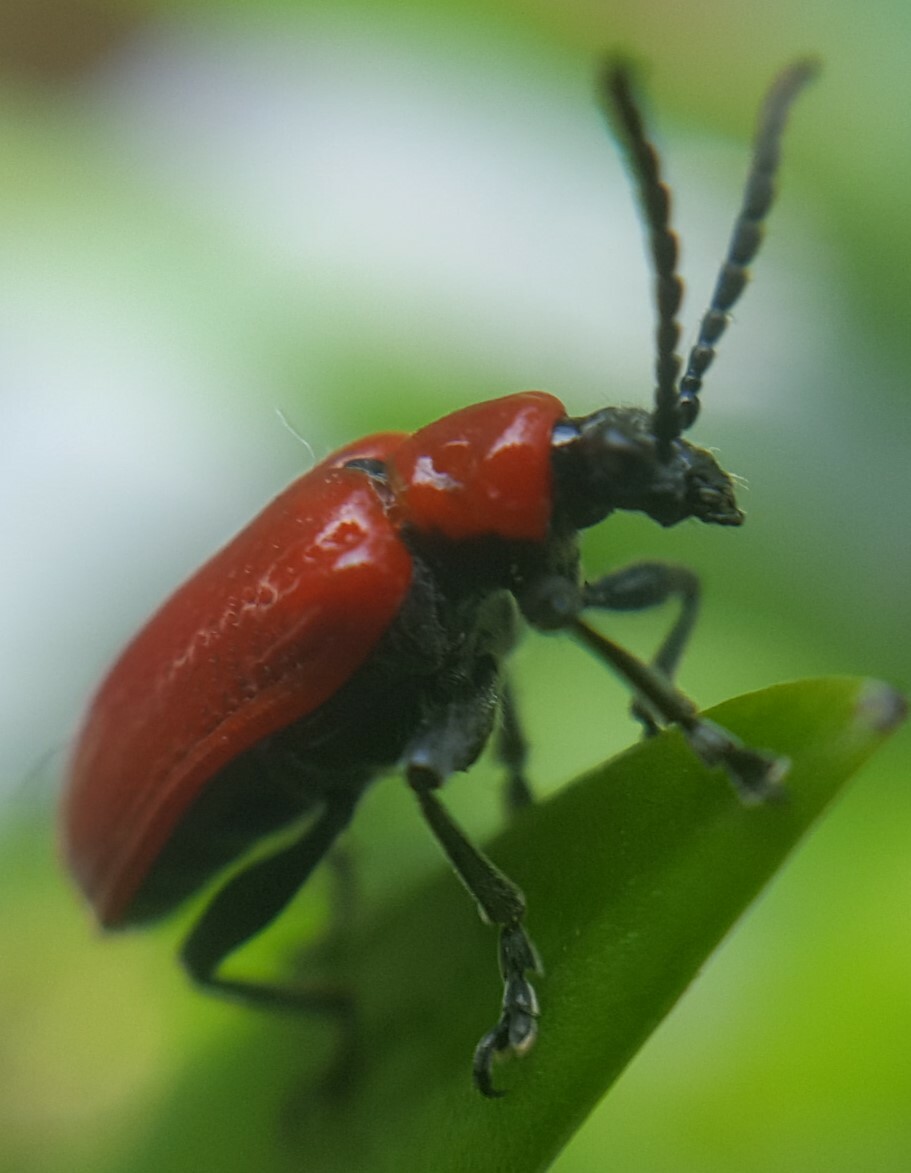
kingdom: Animalia
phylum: Arthropoda
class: Insecta
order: Coleoptera
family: Chrysomelidae
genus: Lilioceris
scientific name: Lilioceris lilii
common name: Lily beetle
